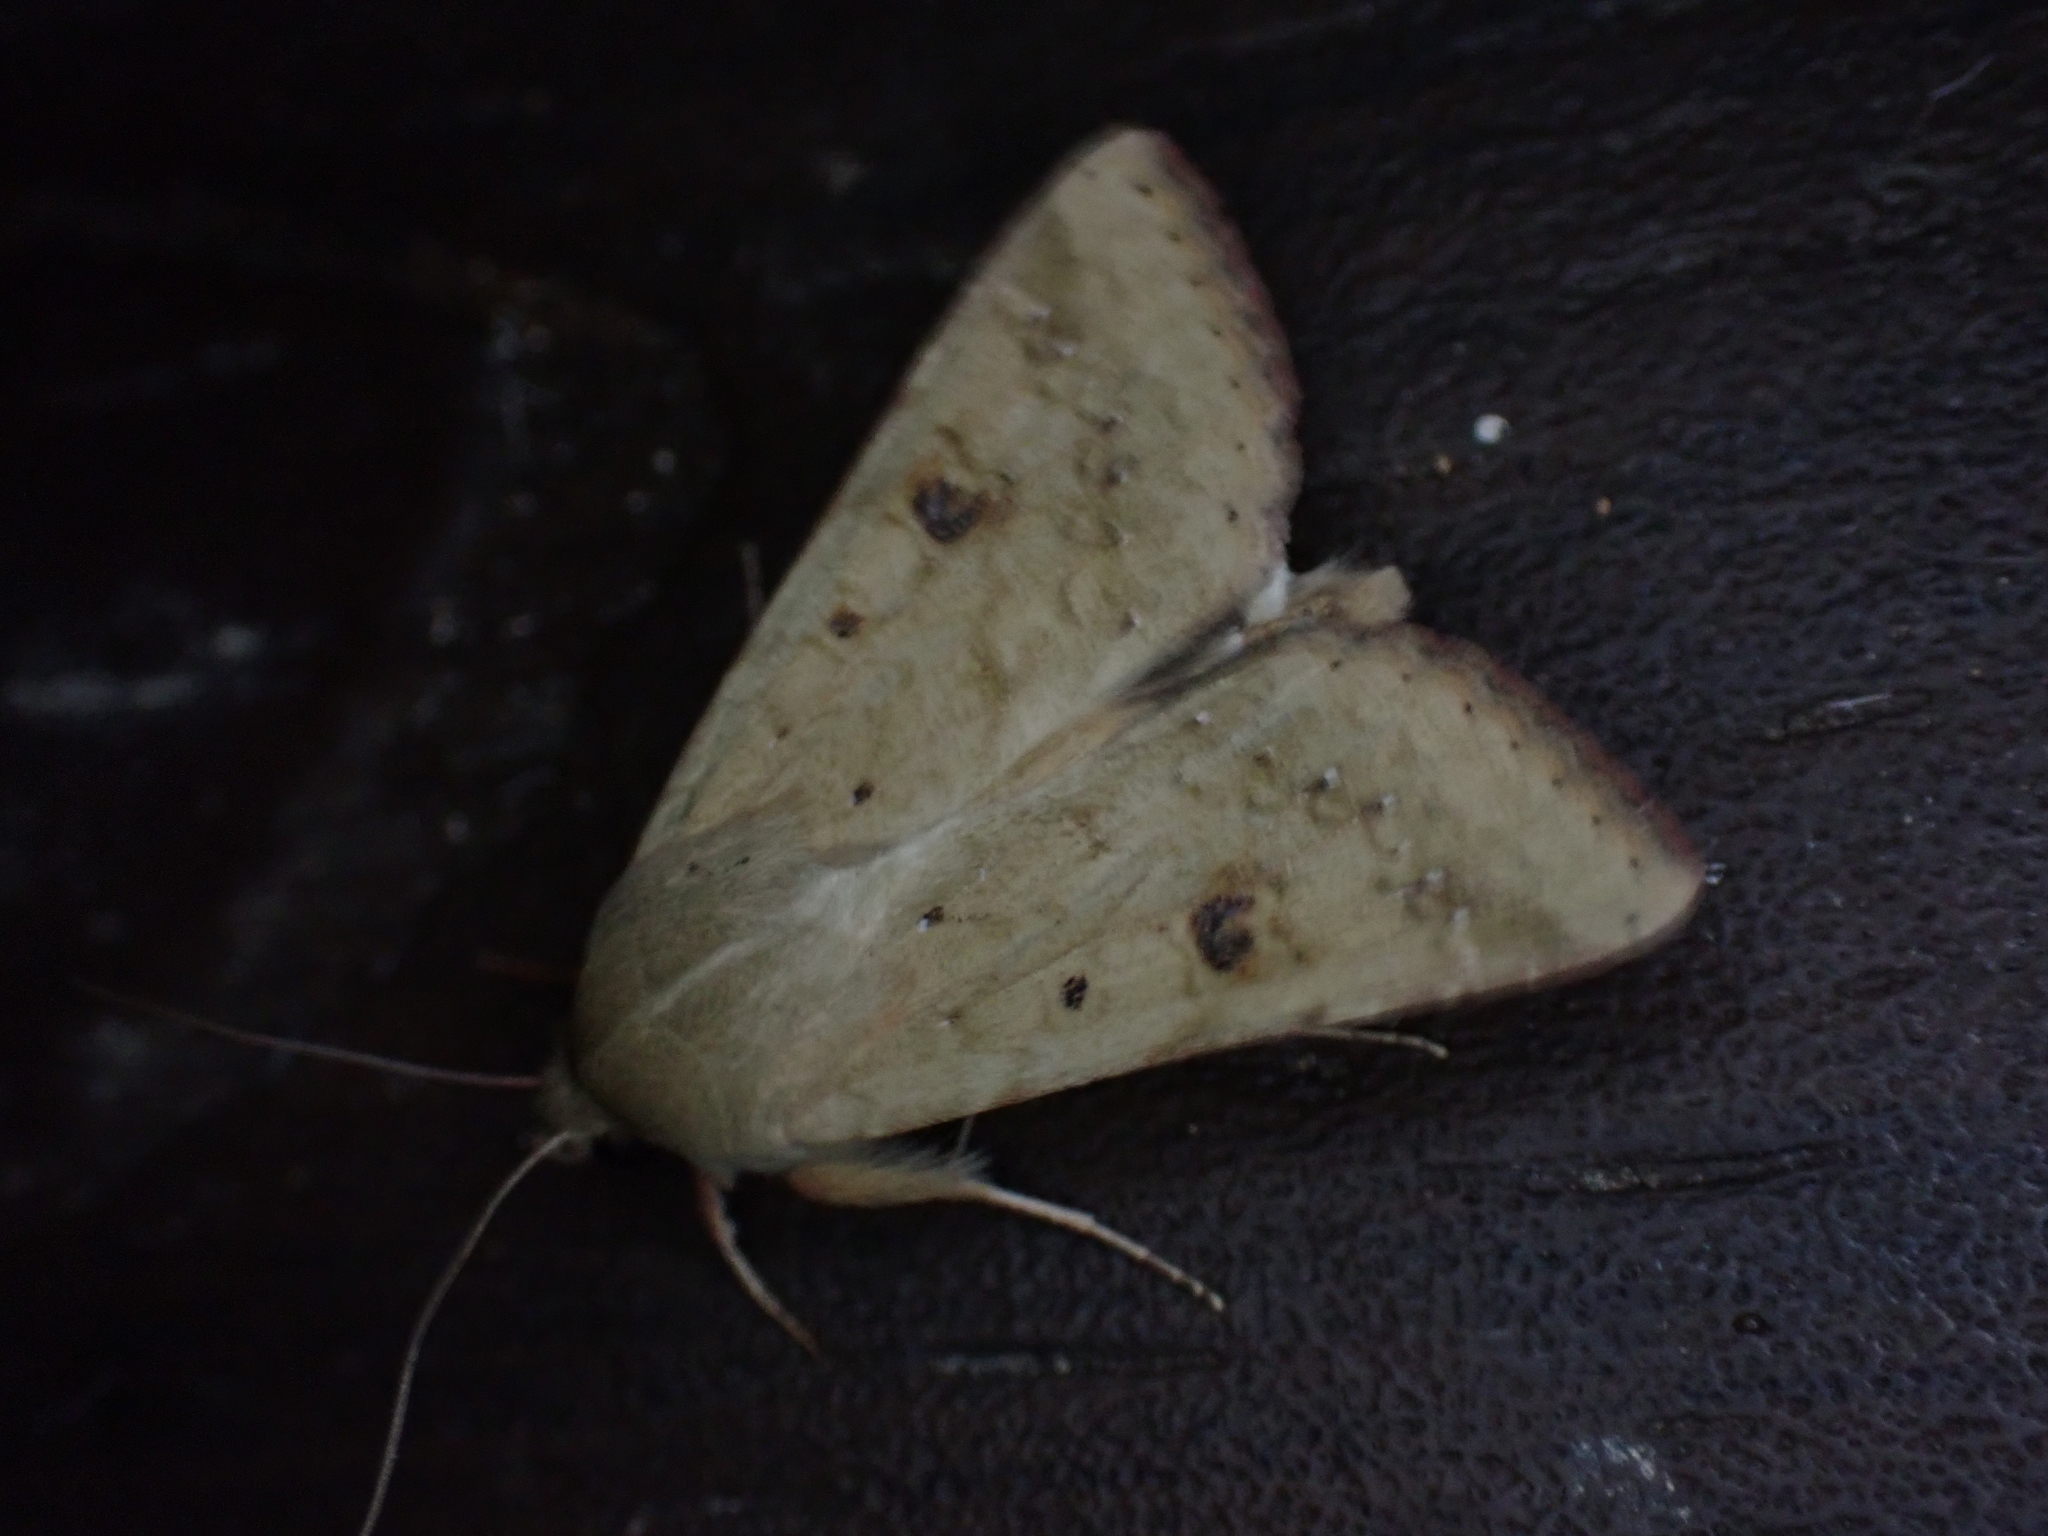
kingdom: Animalia
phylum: Arthropoda
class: Insecta
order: Lepidoptera
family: Noctuidae
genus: Helicoverpa
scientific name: Helicoverpa zea
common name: Bollworm
